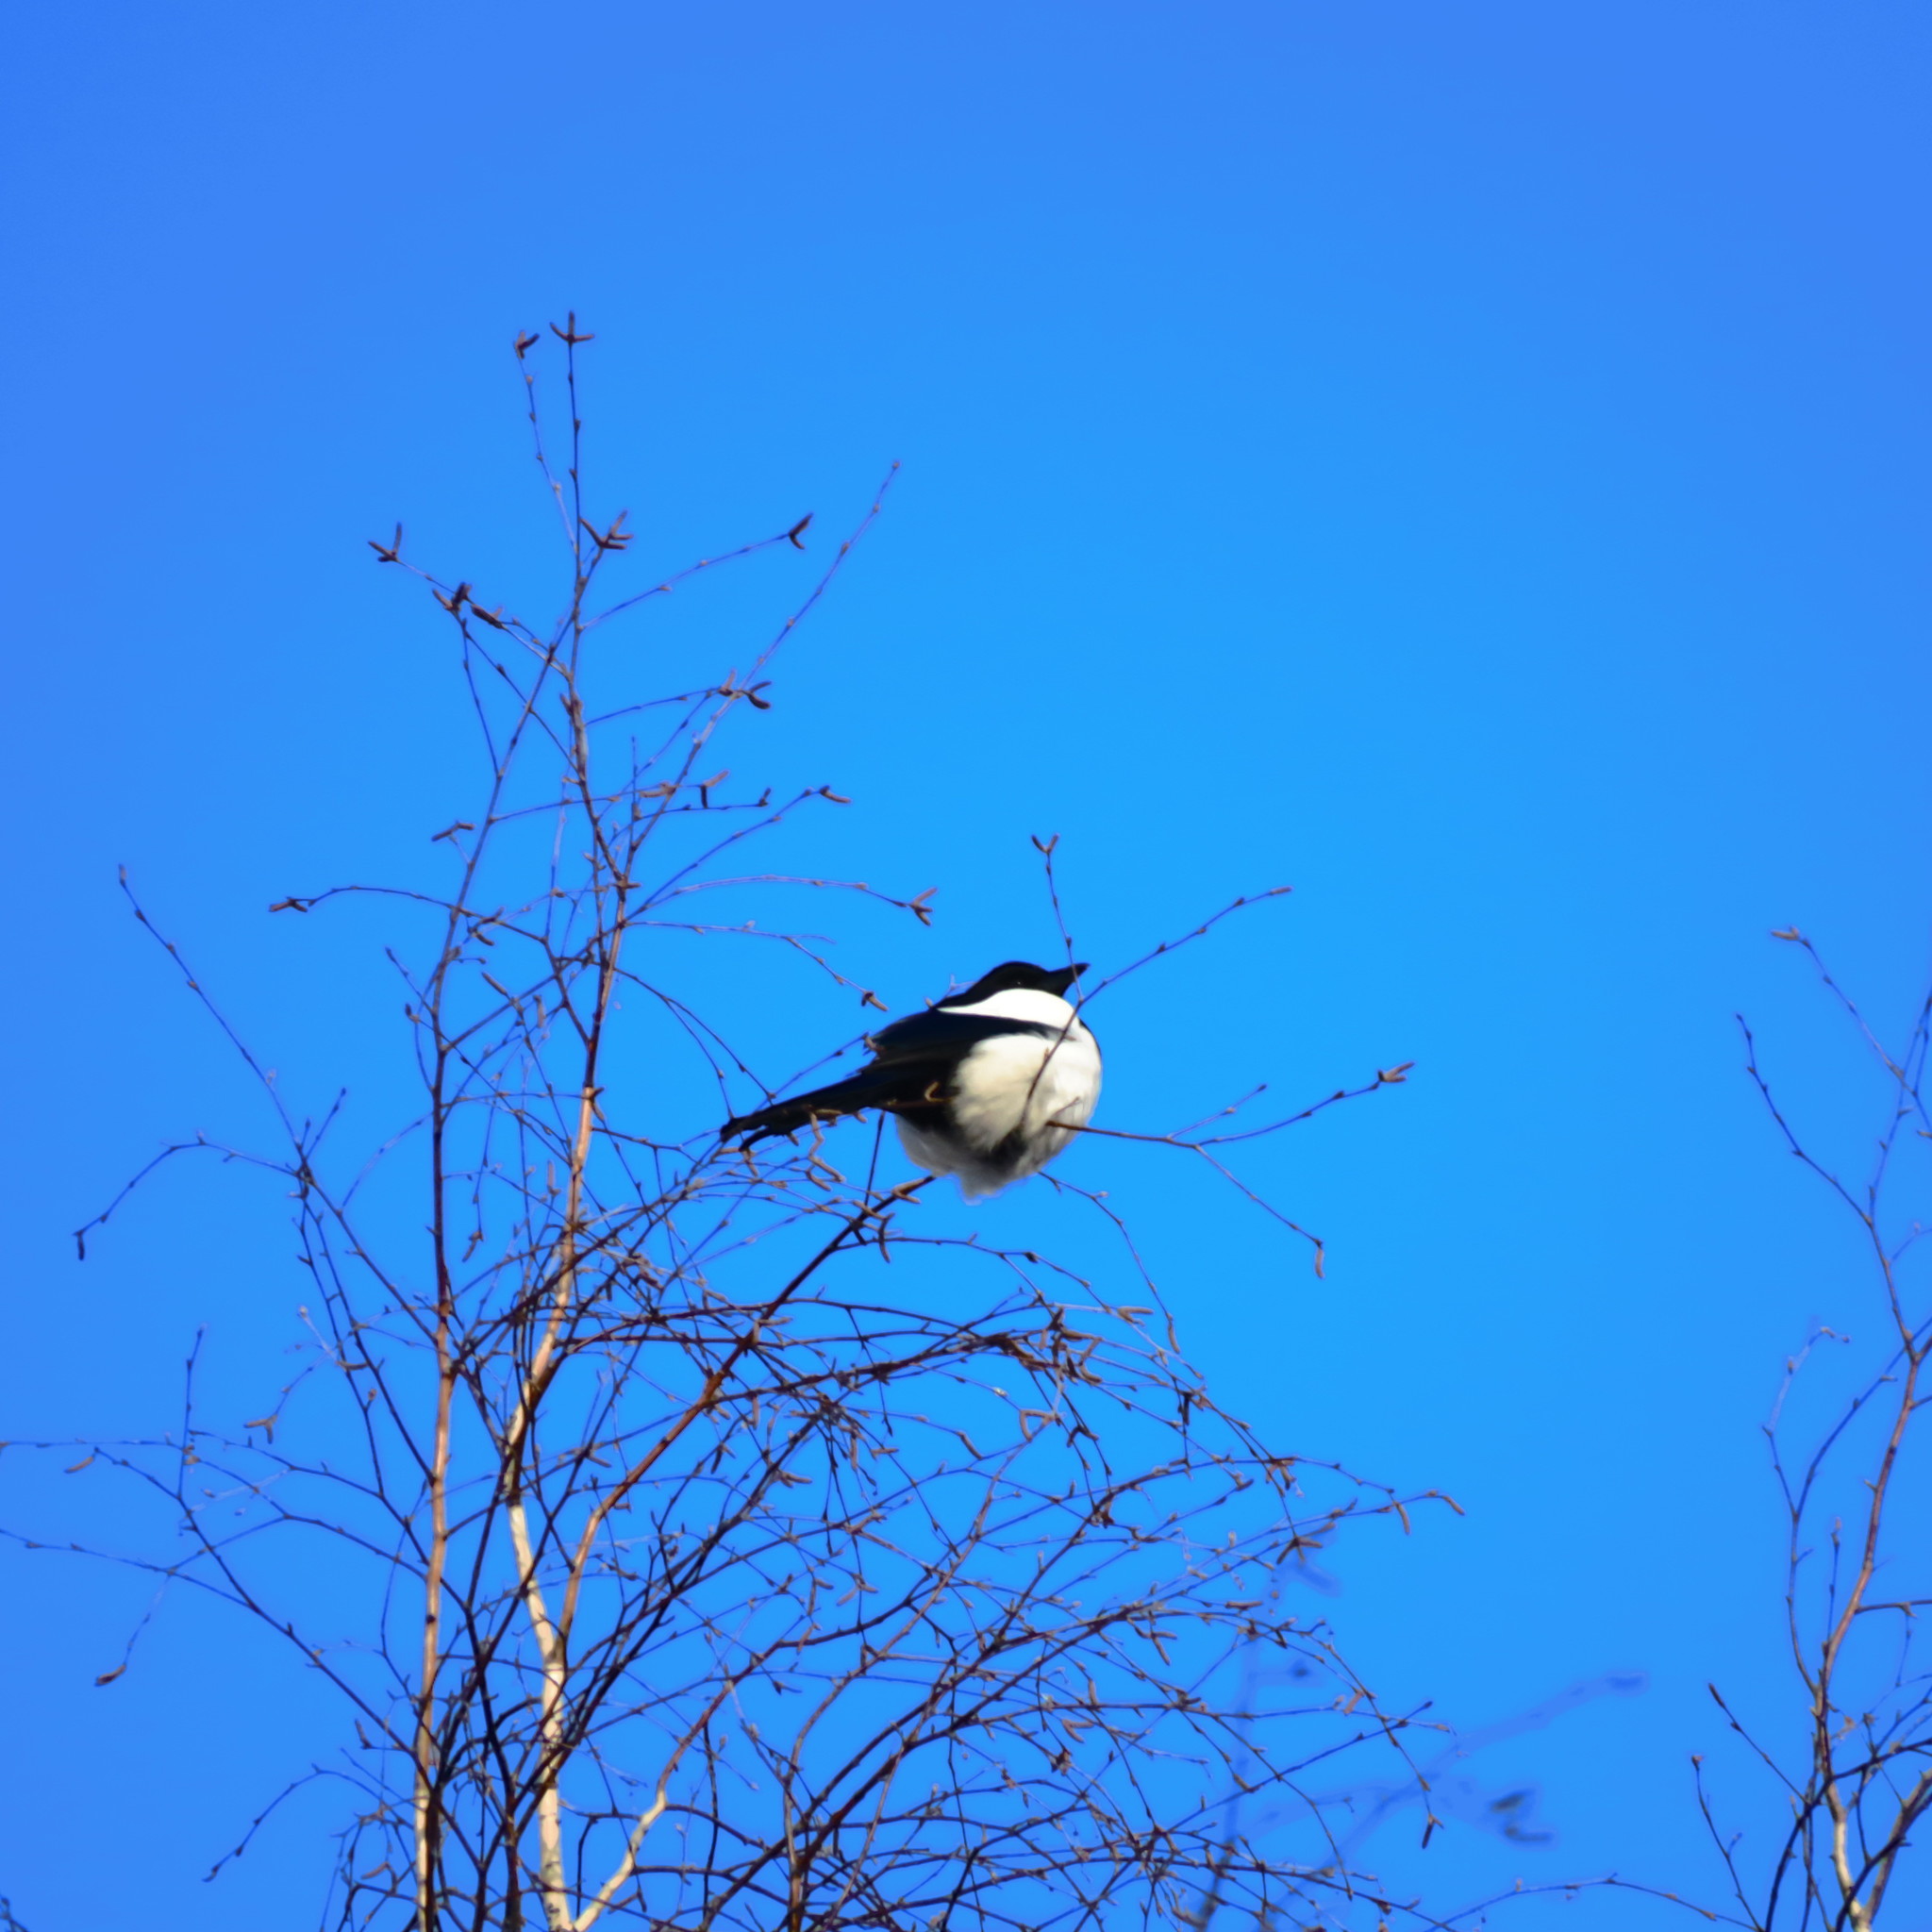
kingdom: Animalia
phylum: Chordata
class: Aves
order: Passeriformes
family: Corvidae
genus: Pica
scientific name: Pica pica
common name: Eurasian magpie
